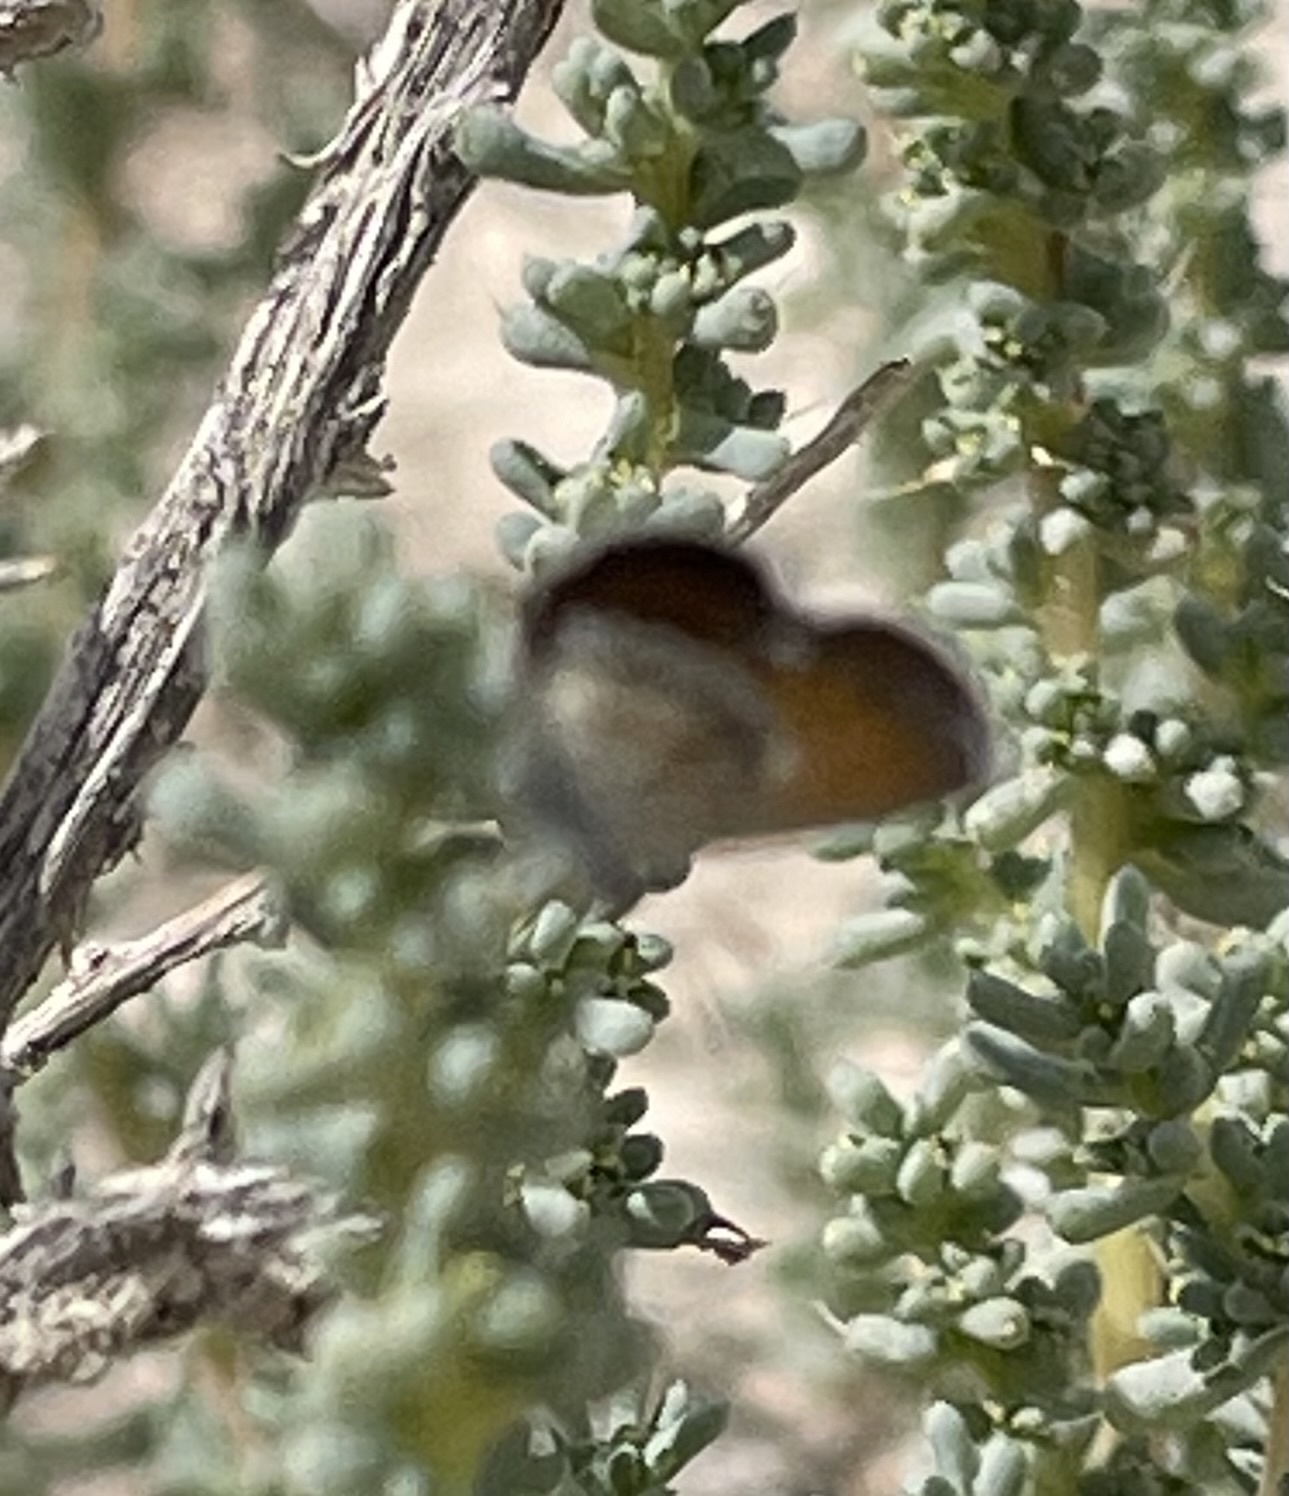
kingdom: Animalia
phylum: Arthropoda
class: Insecta
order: Lepidoptera
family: Lycaenidae
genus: Brephidium
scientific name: Brephidium exilis
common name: Pygmy blue
